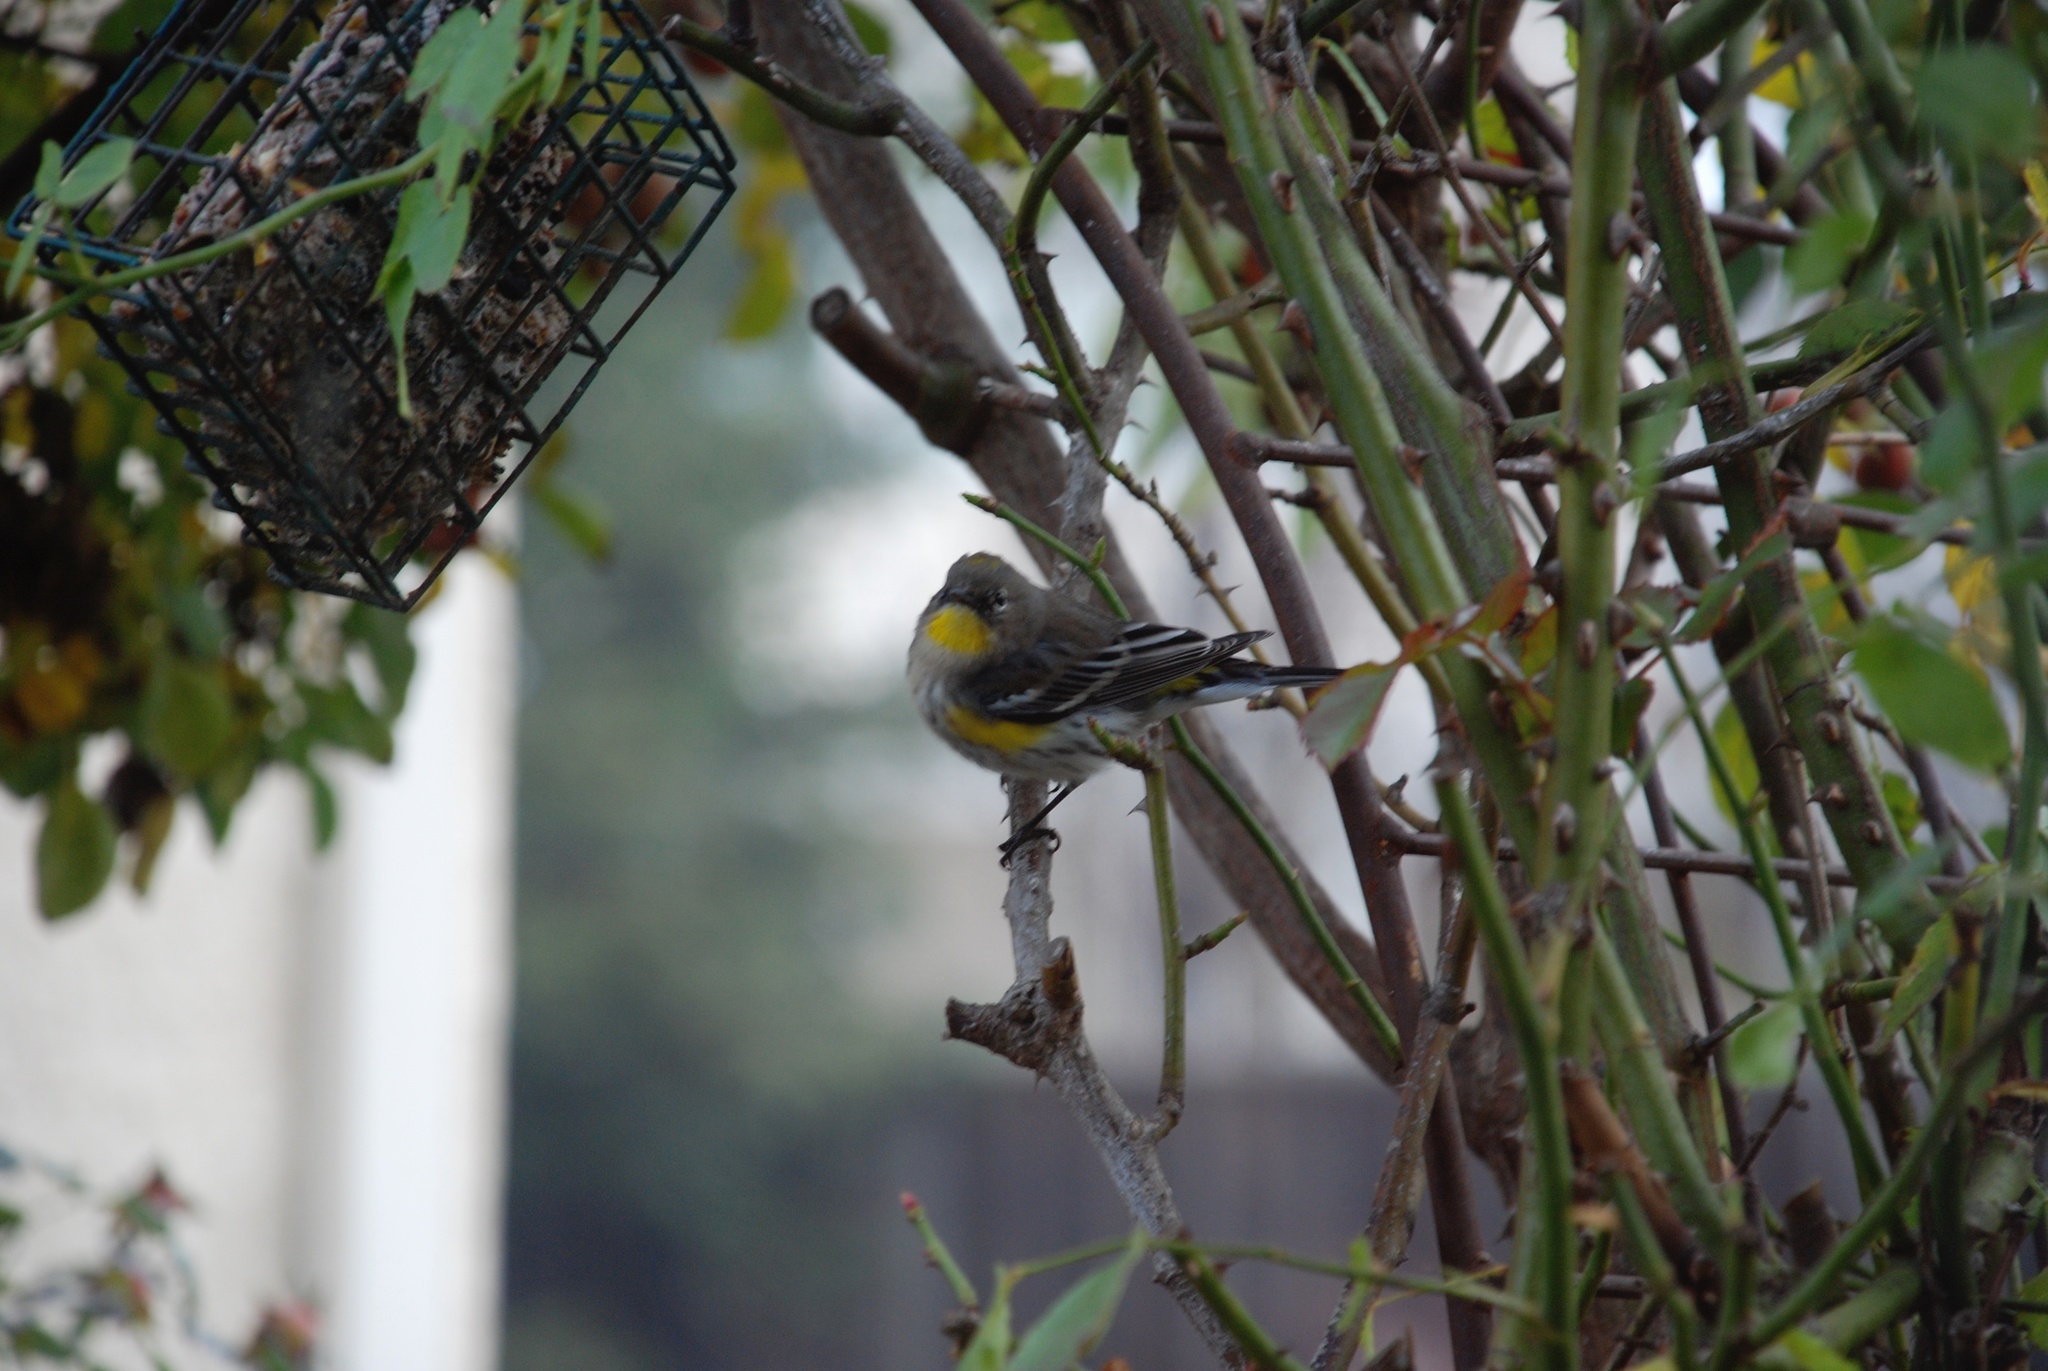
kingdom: Animalia
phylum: Chordata
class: Aves
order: Passeriformes
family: Parulidae
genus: Setophaga
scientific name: Setophaga coronata
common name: Myrtle warbler
